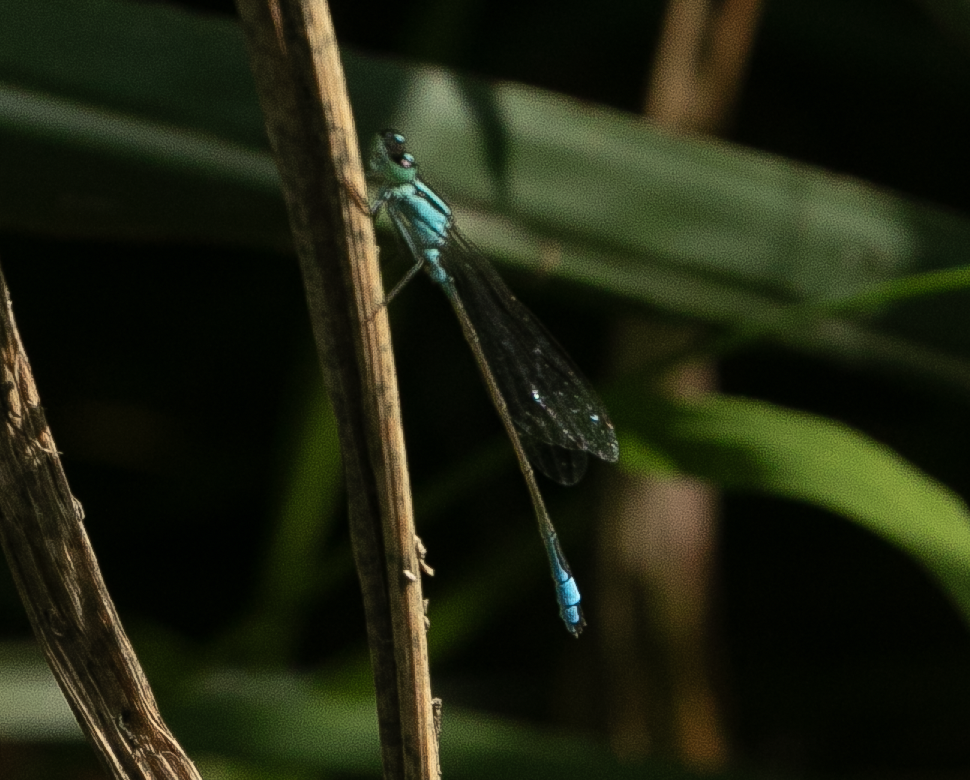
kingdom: Animalia
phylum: Arthropoda
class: Insecta
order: Odonata
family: Coenagrionidae
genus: Ischnura
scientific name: Ischnura elegans
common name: Blue-tailed damselfly
